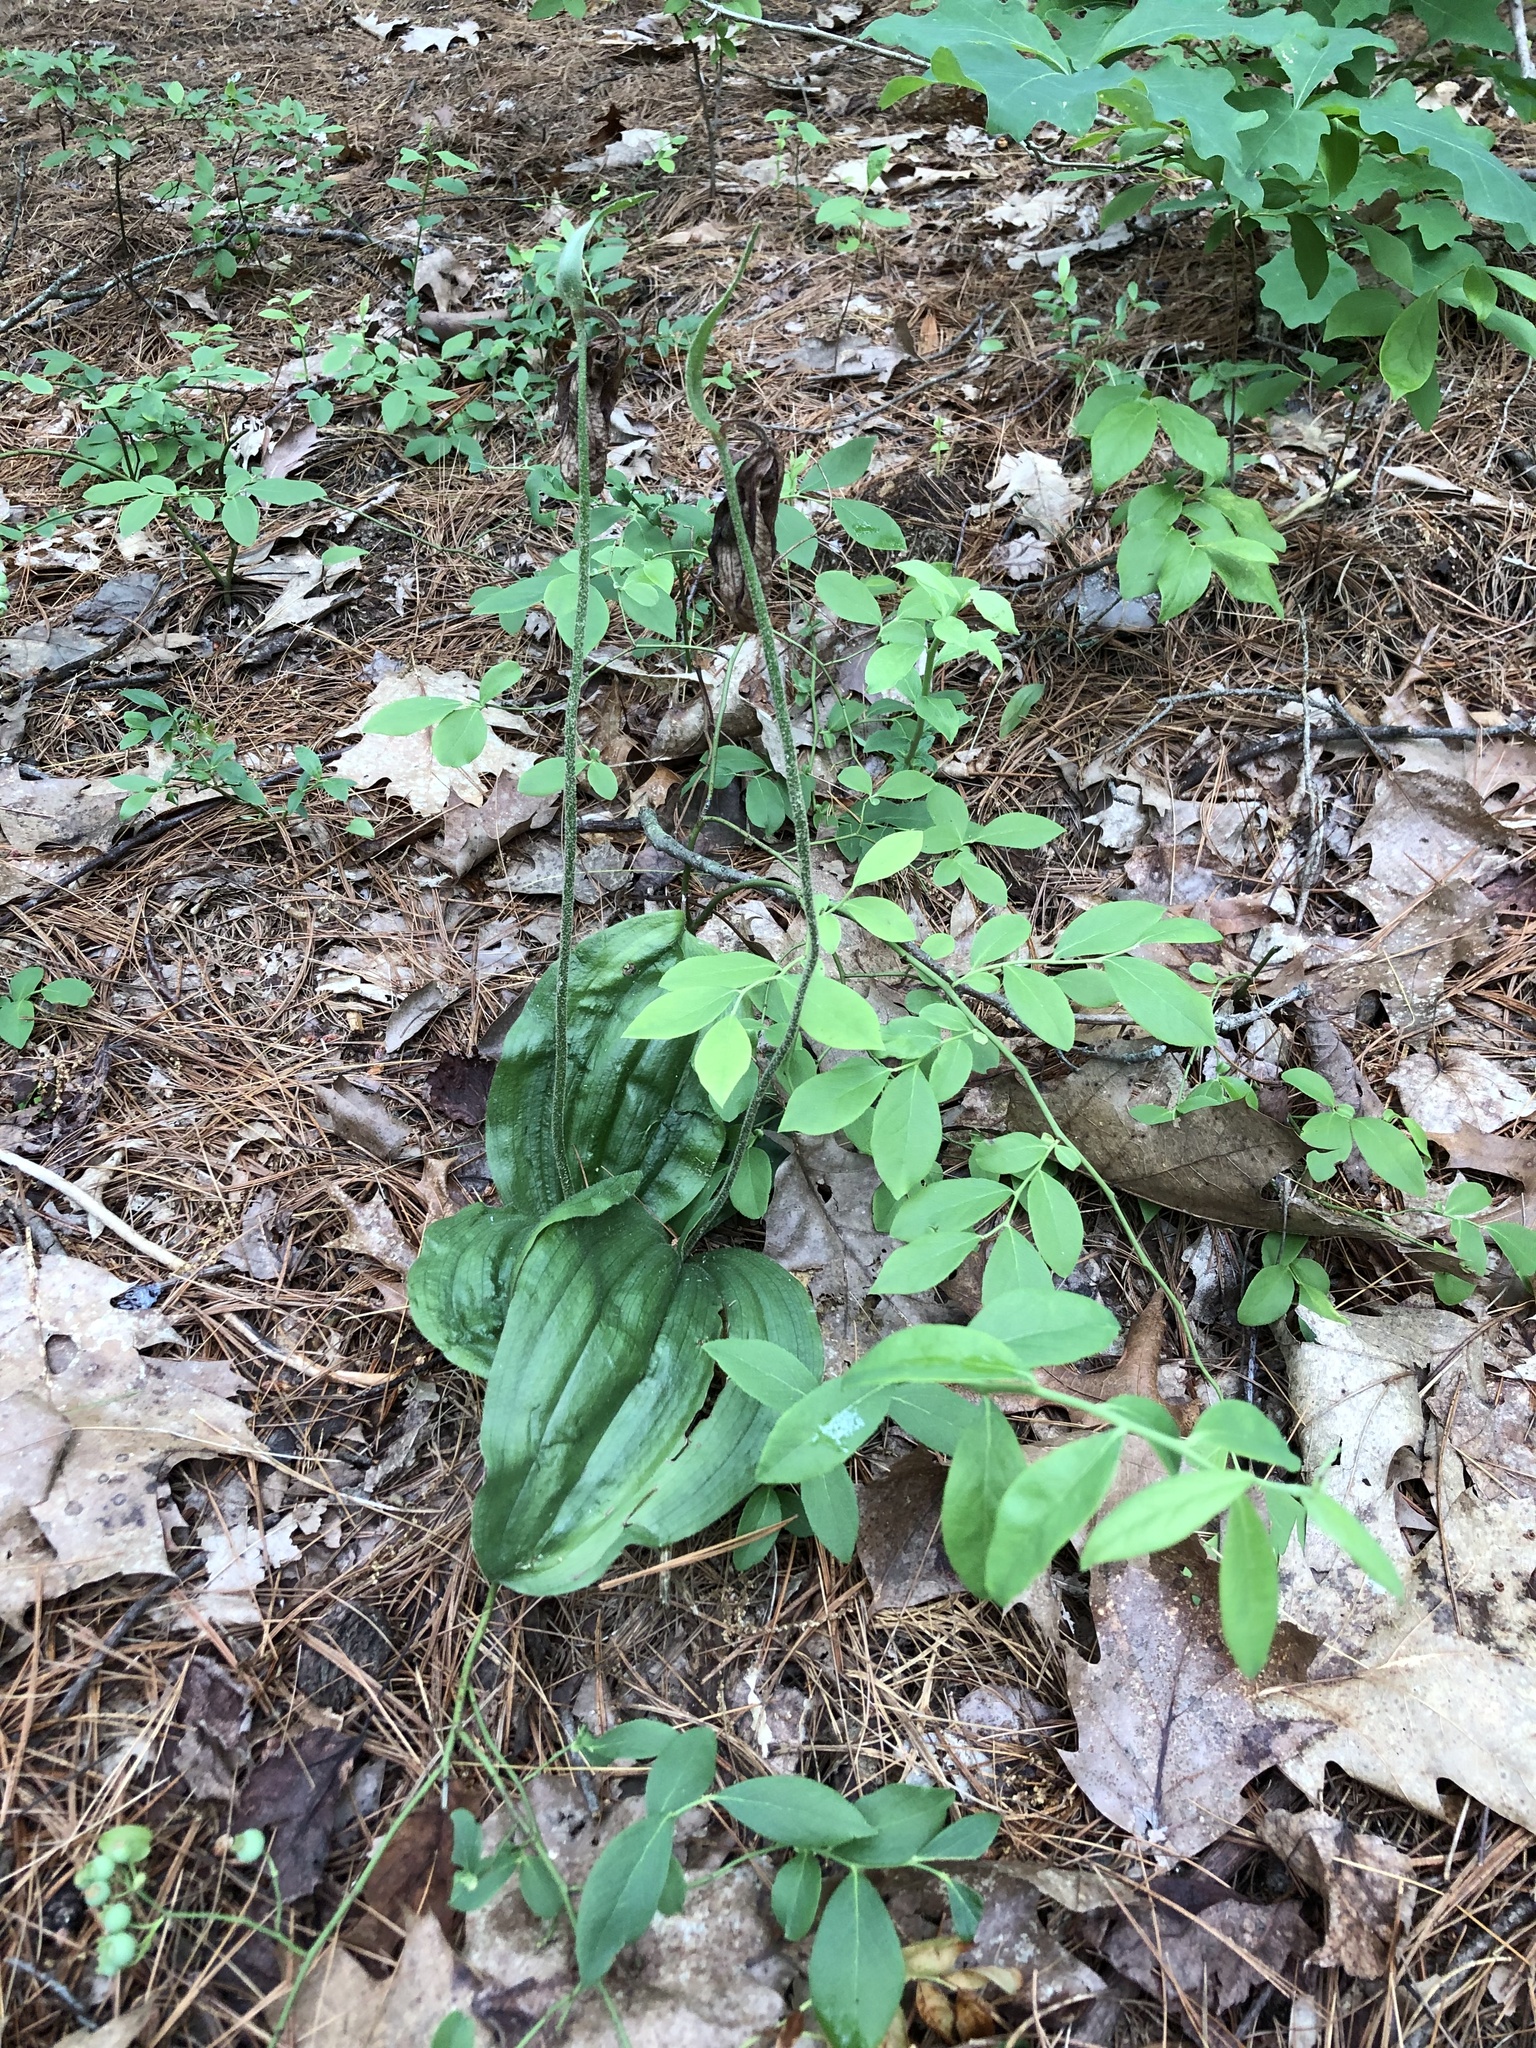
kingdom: Plantae
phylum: Tracheophyta
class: Liliopsida
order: Asparagales
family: Orchidaceae
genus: Cypripedium
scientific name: Cypripedium acaule
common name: Pink lady's-slipper
